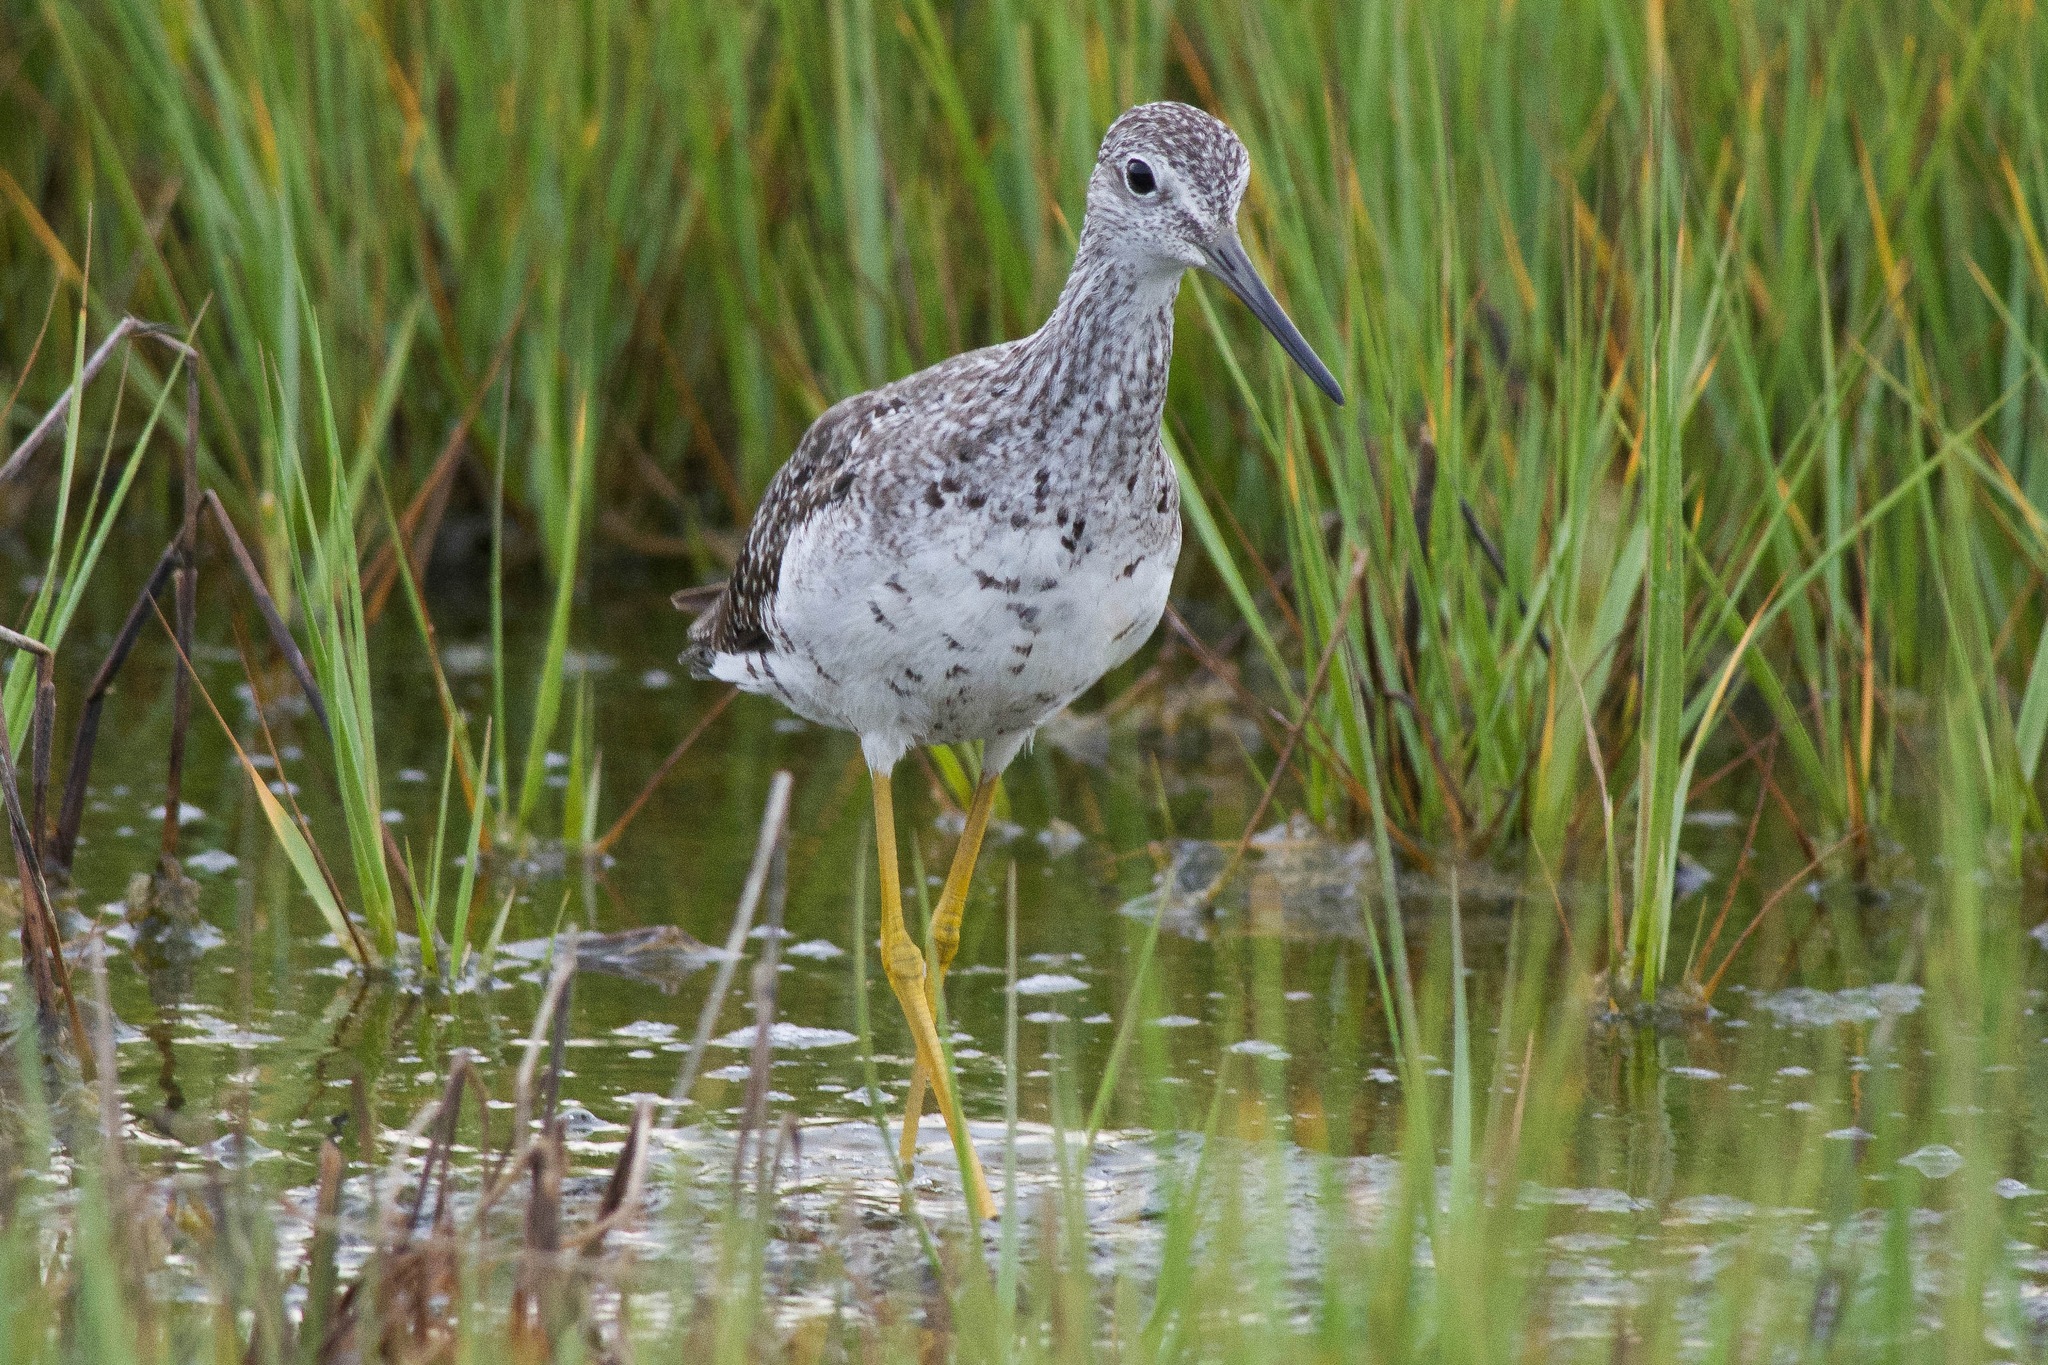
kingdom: Animalia
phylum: Chordata
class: Aves
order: Charadriiformes
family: Scolopacidae
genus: Tringa
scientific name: Tringa melanoleuca
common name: Greater yellowlegs
